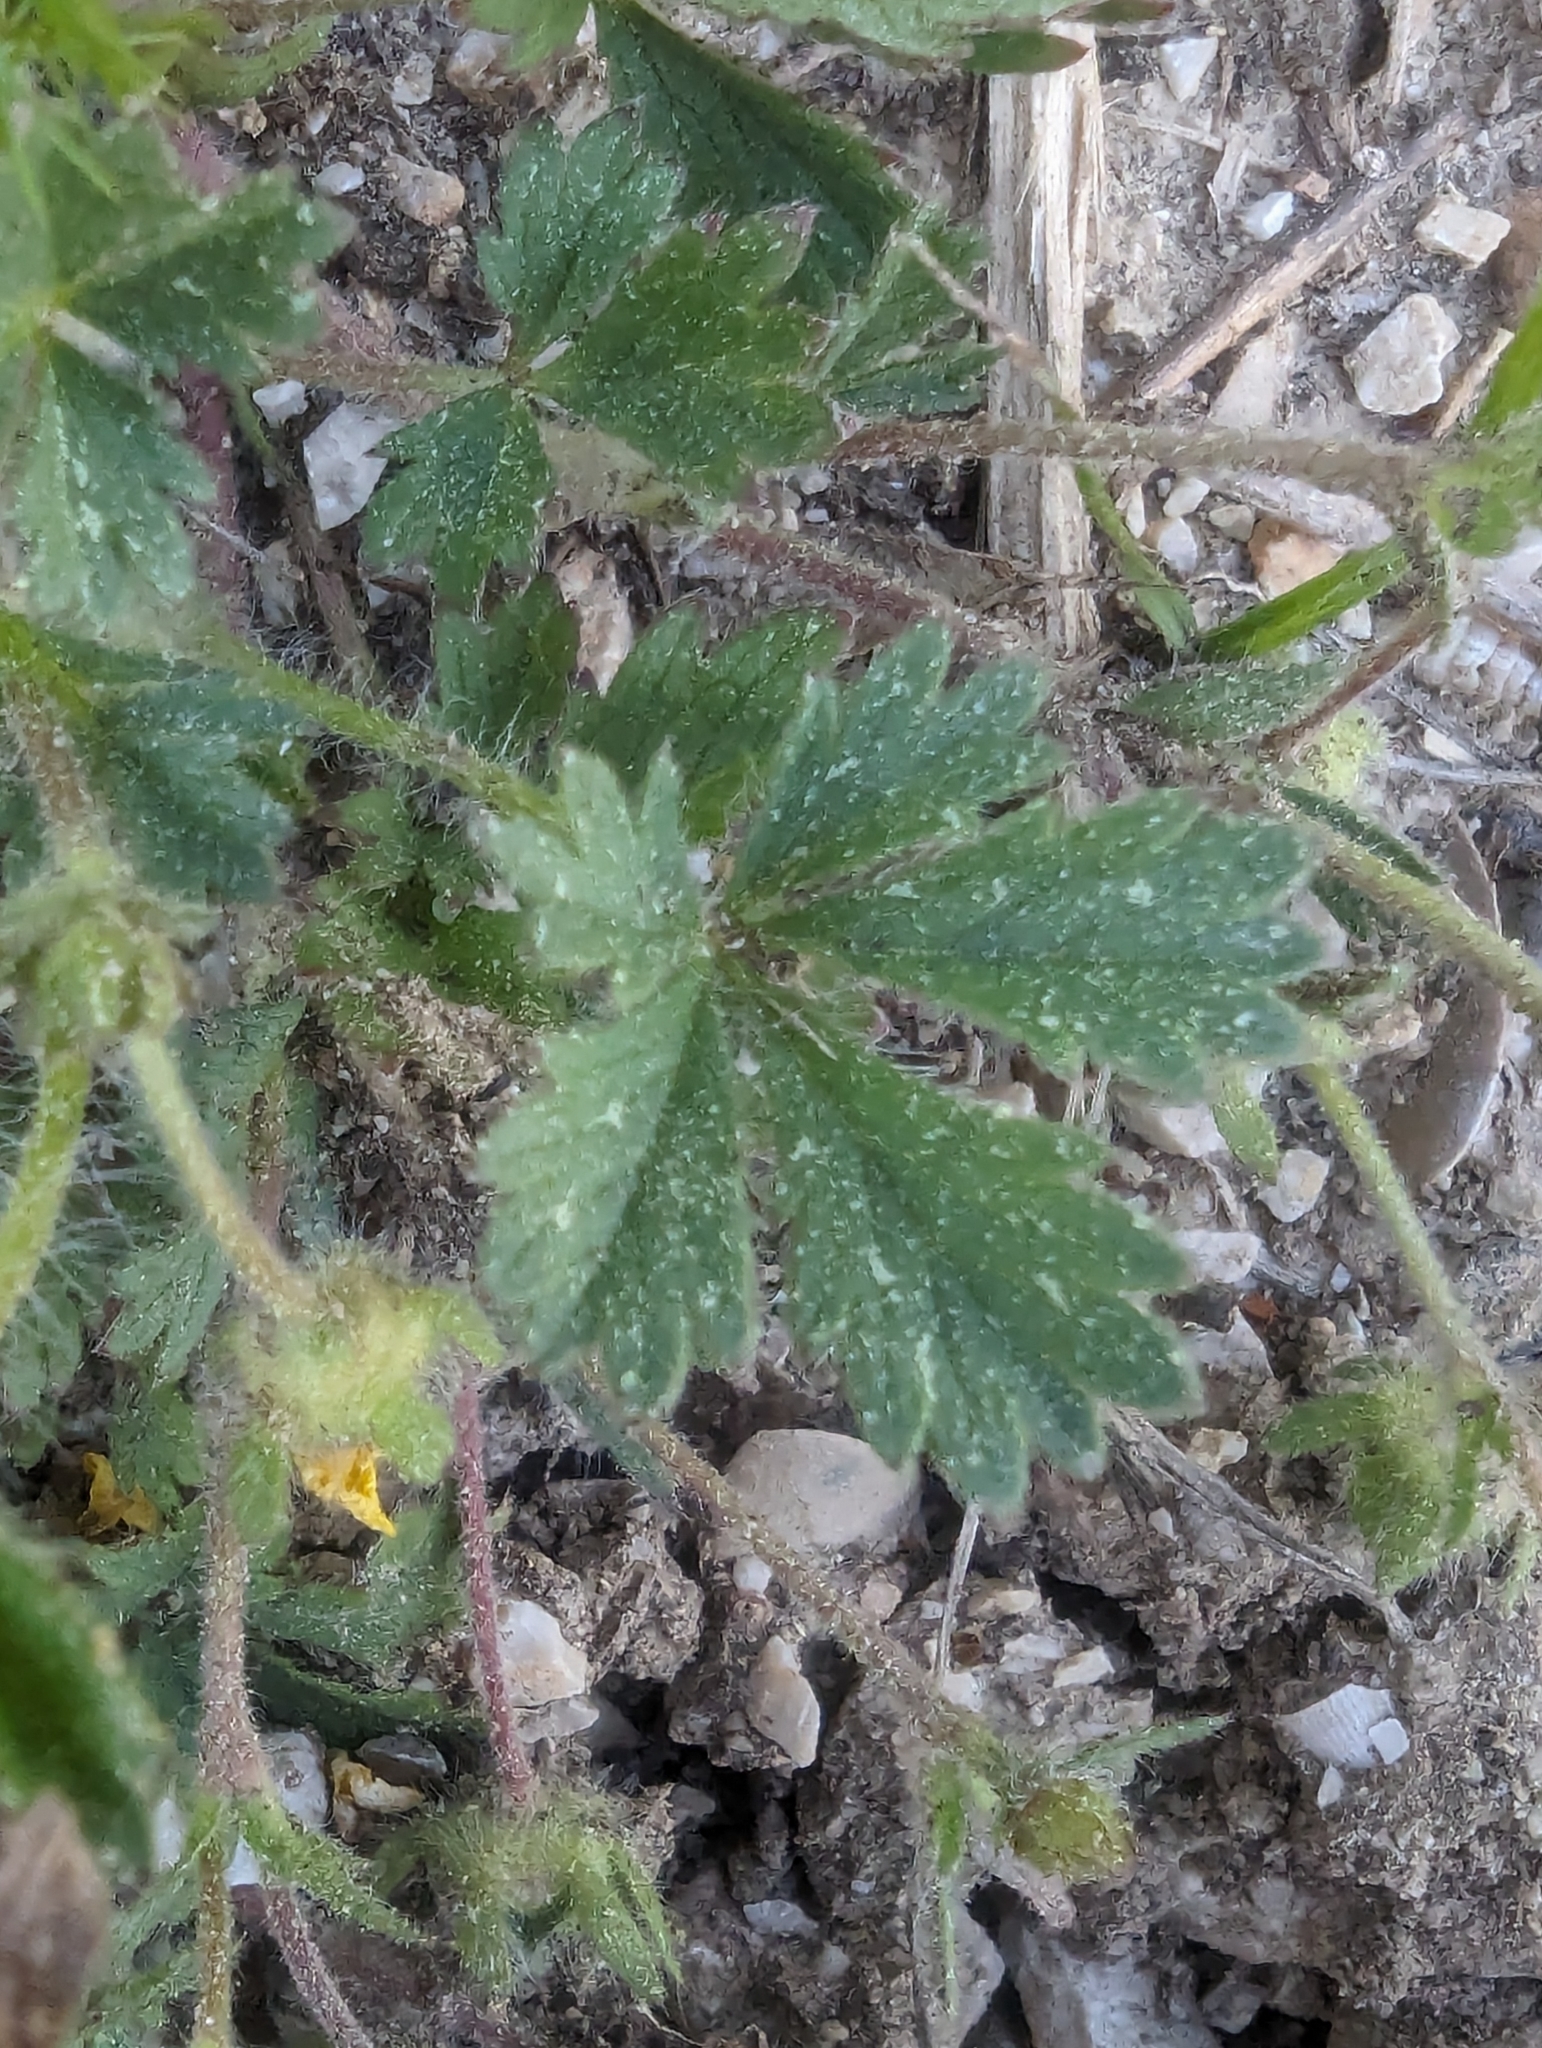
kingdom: Plantae
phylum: Tracheophyta
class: Magnoliopsida
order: Rosales
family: Rosaceae
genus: Potentilla
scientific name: Potentilla verna
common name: Spring cinquefoil
